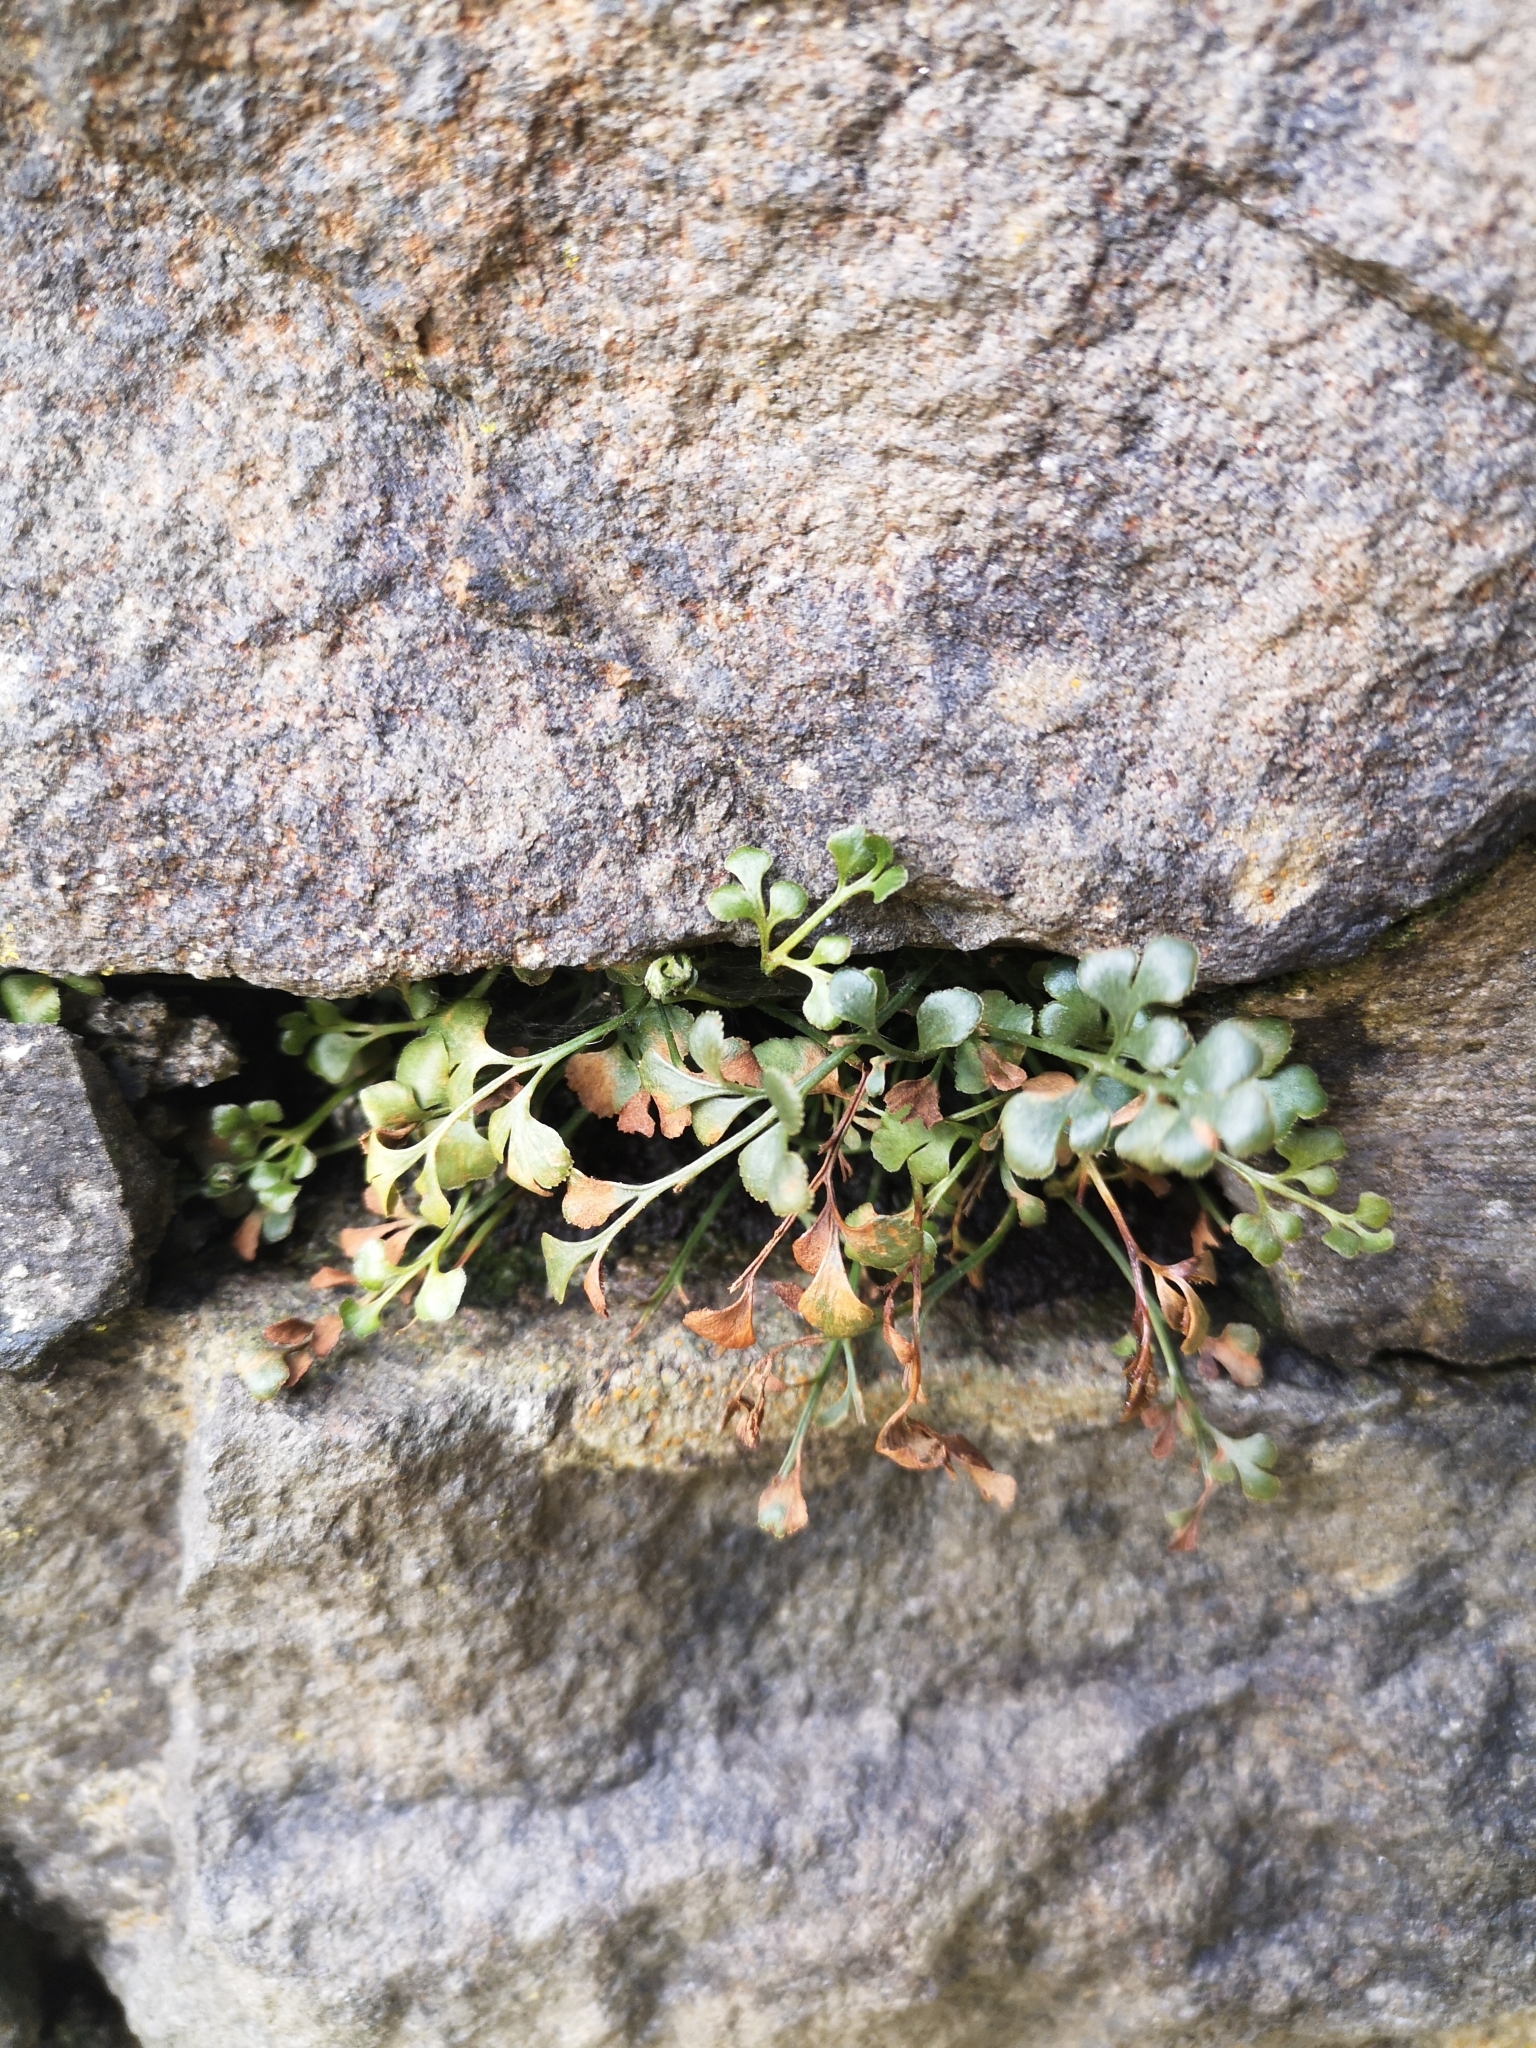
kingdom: Plantae
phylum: Tracheophyta
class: Polypodiopsida
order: Polypodiales
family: Aspleniaceae
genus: Asplenium
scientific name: Asplenium ruta-muraria
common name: Wall-rue
